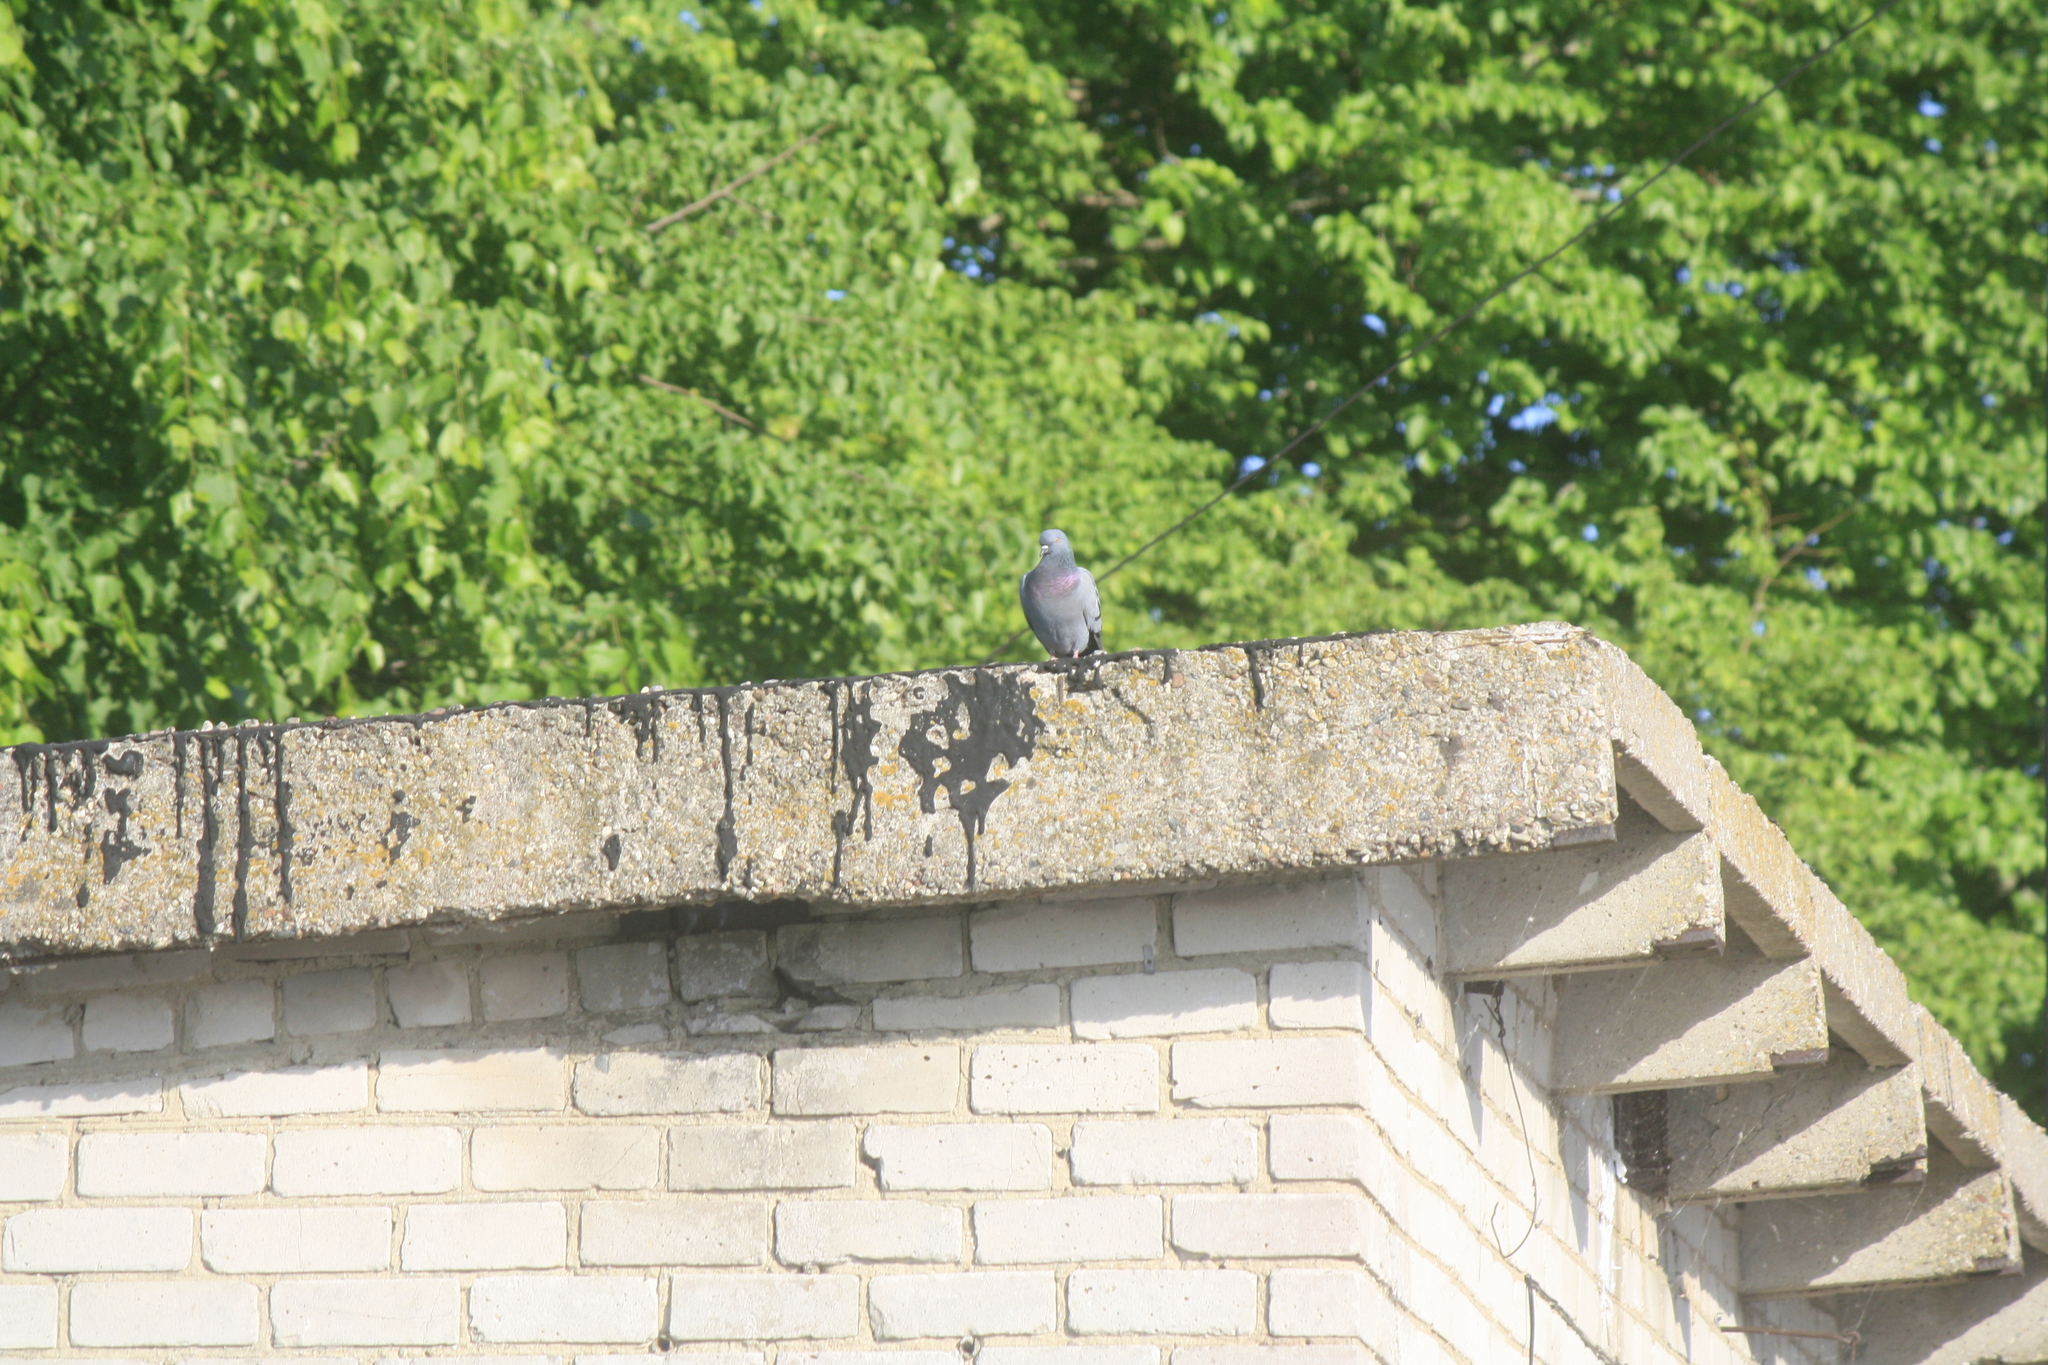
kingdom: Animalia
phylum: Chordata
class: Aves
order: Columbiformes
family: Columbidae
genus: Columba
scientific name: Columba livia
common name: Rock pigeon
